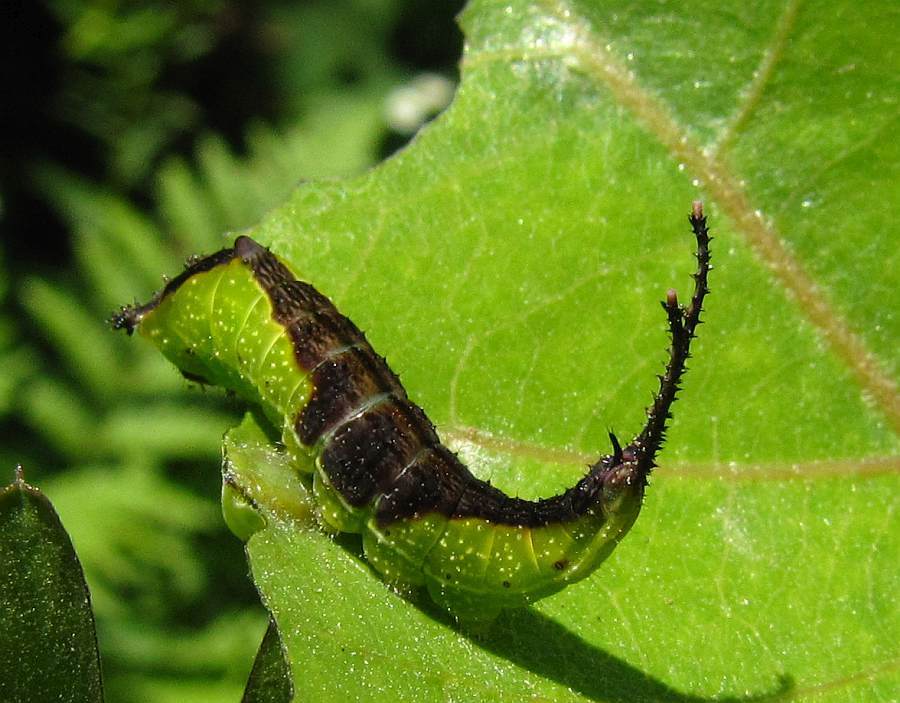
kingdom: Animalia
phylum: Arthropoda
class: Insecta
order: Lepidoptera
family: Notodontidae
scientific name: Notodontidae
